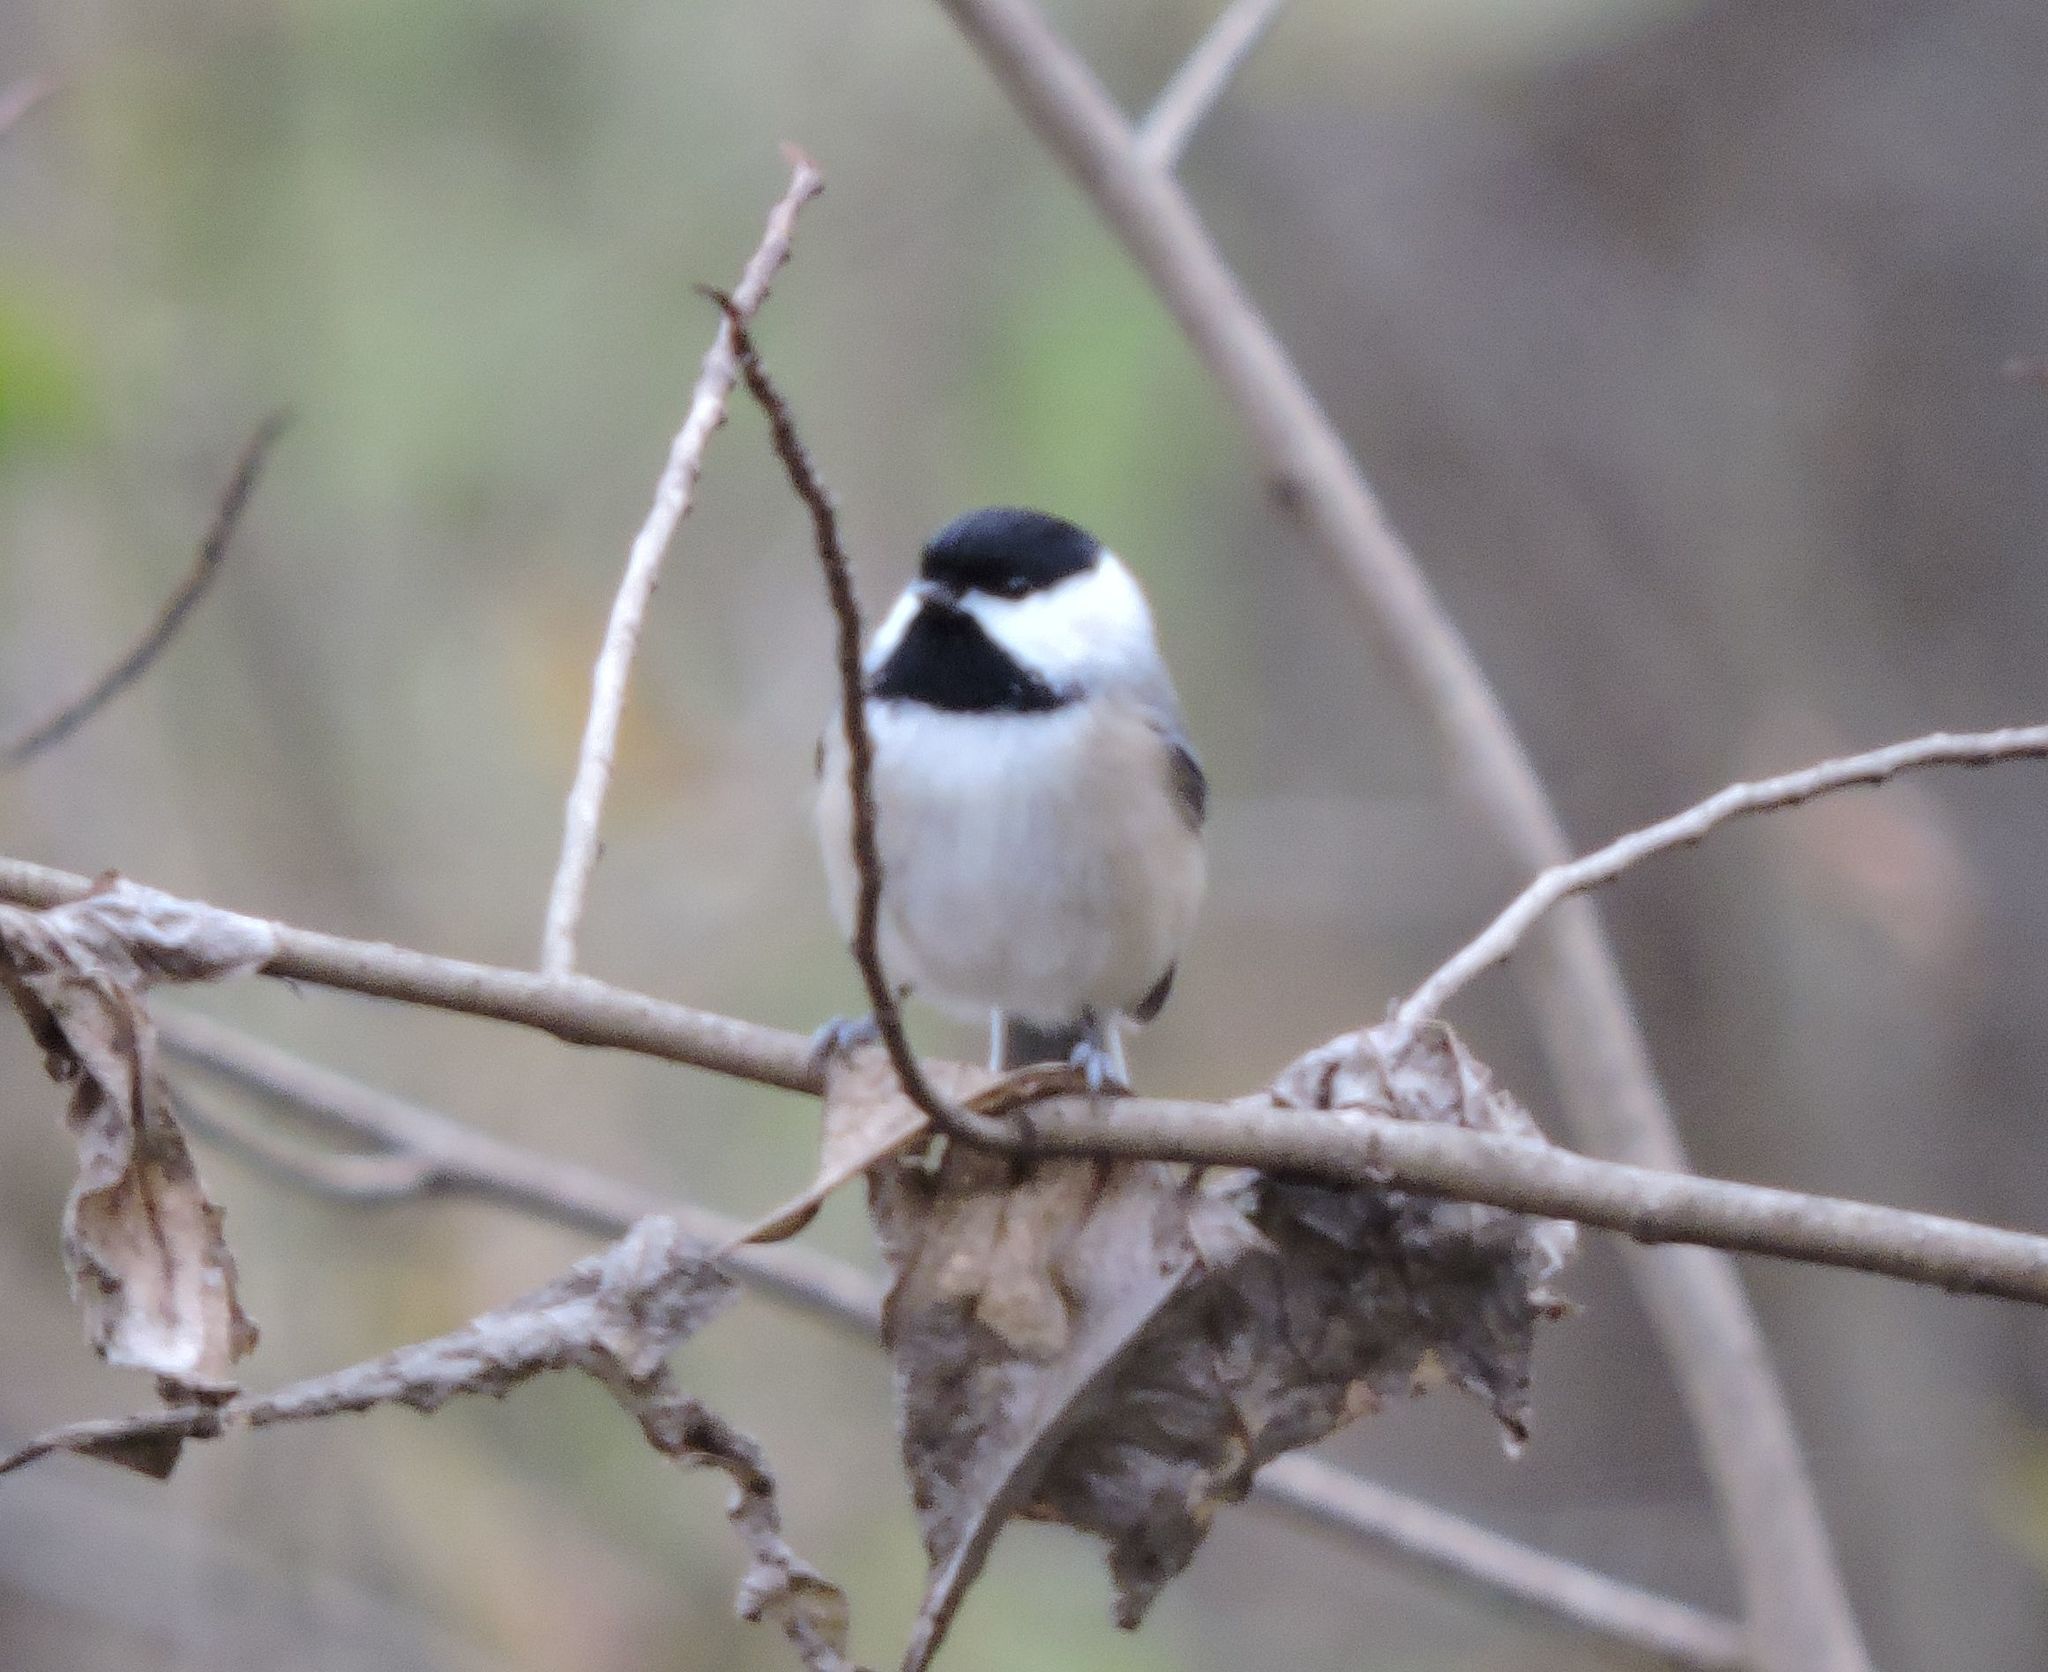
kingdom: Animalia
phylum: Chordata
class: Aves
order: Passeriformes
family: Paridae
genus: Poecile
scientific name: Poecile carolinensis
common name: Carolina chickadee
